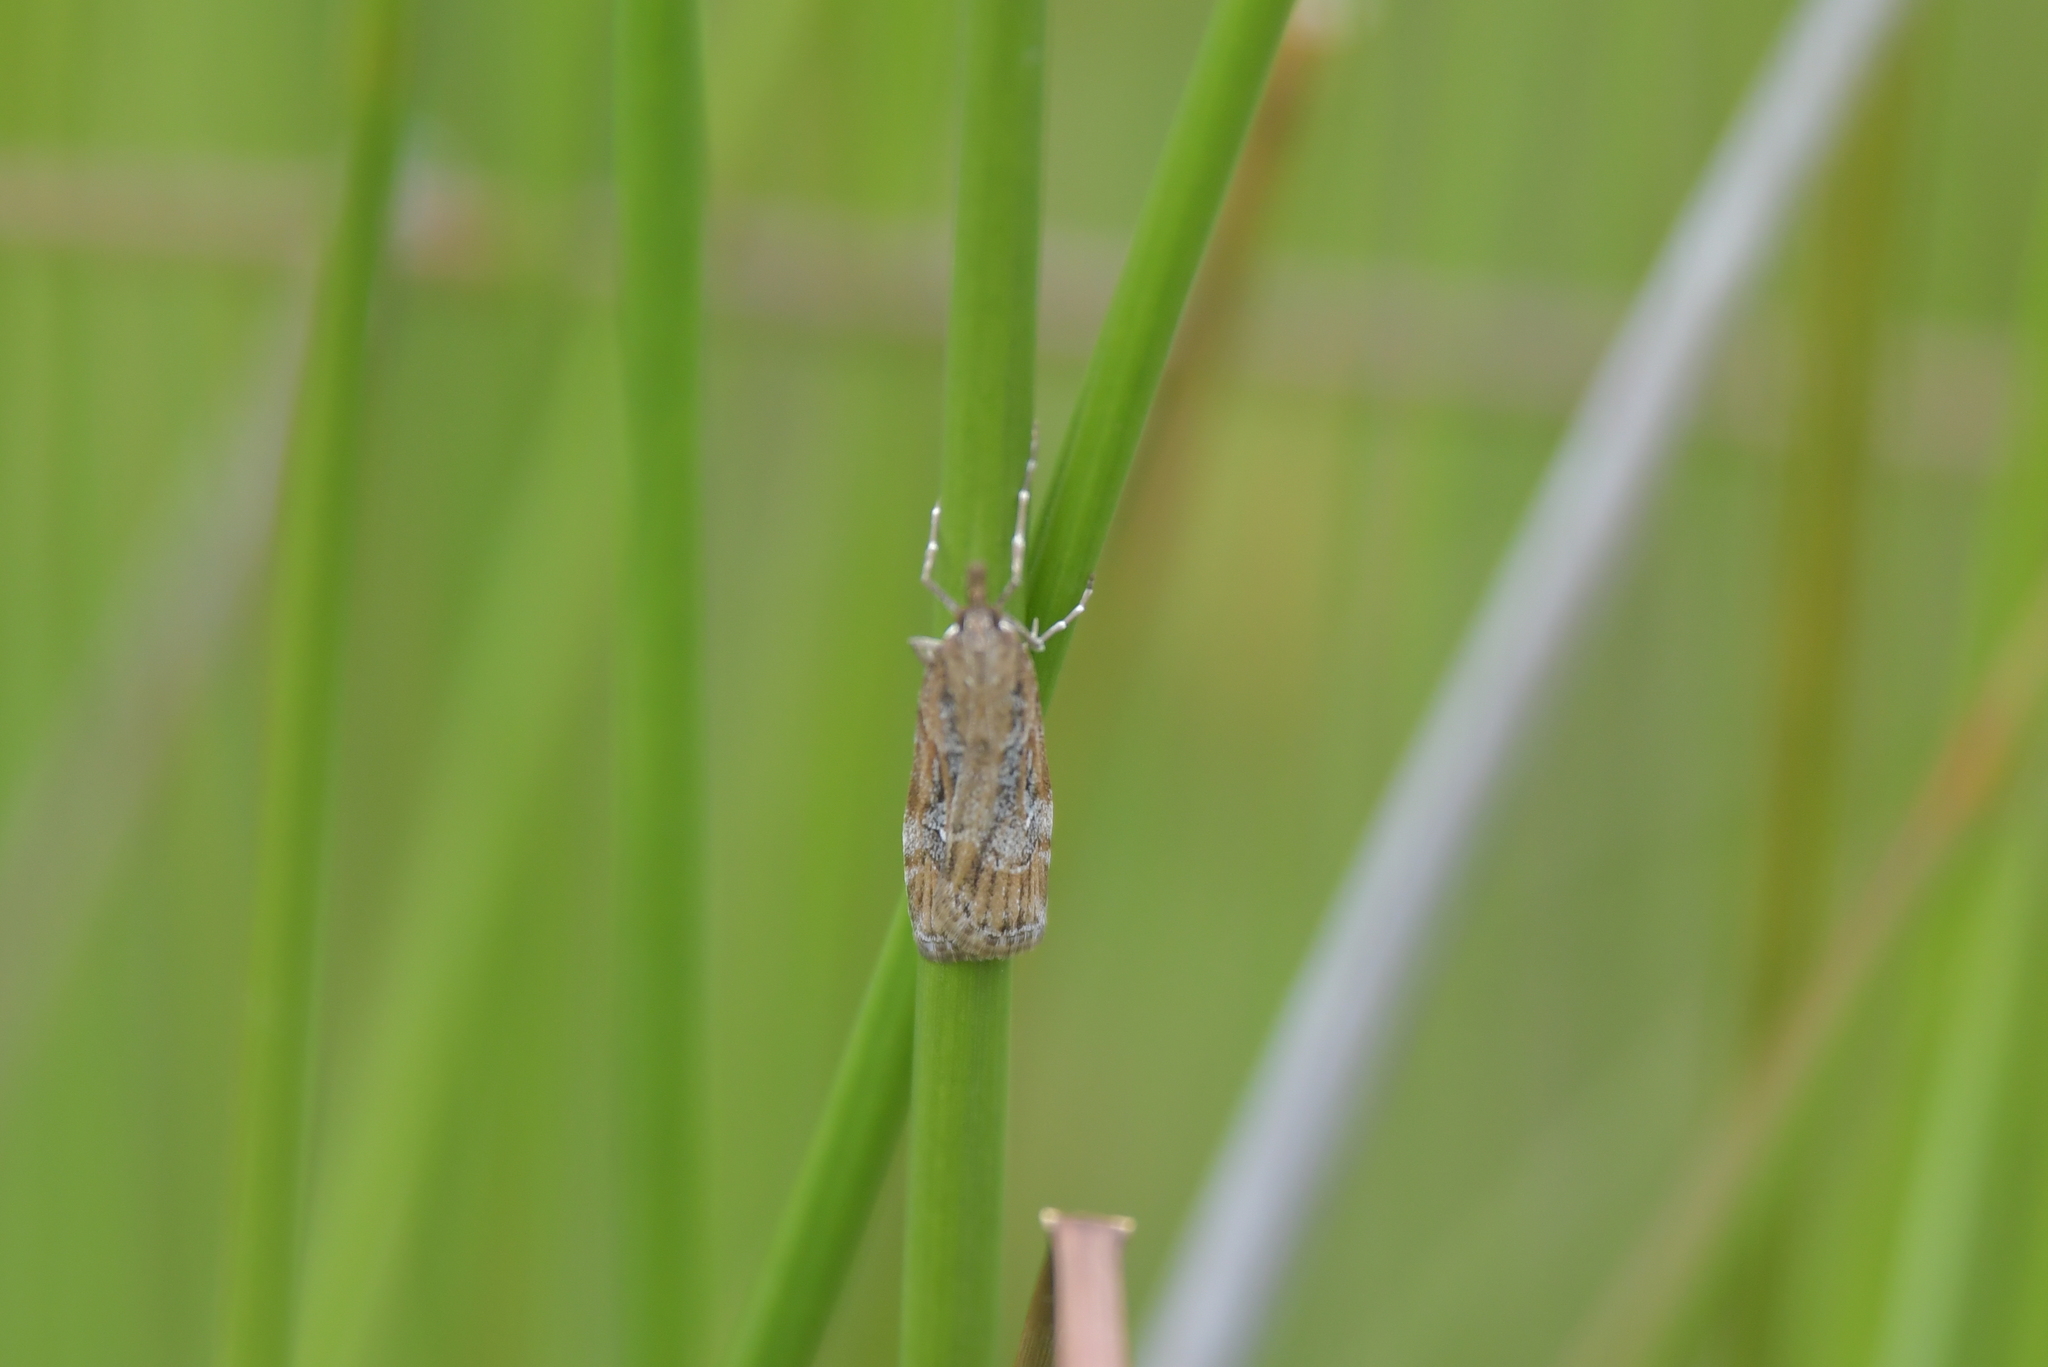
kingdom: Animalia
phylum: Arthropoda
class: Insecta
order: Lepidoptera
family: Crambidae
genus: Eudonia
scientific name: Eudonia chalara
